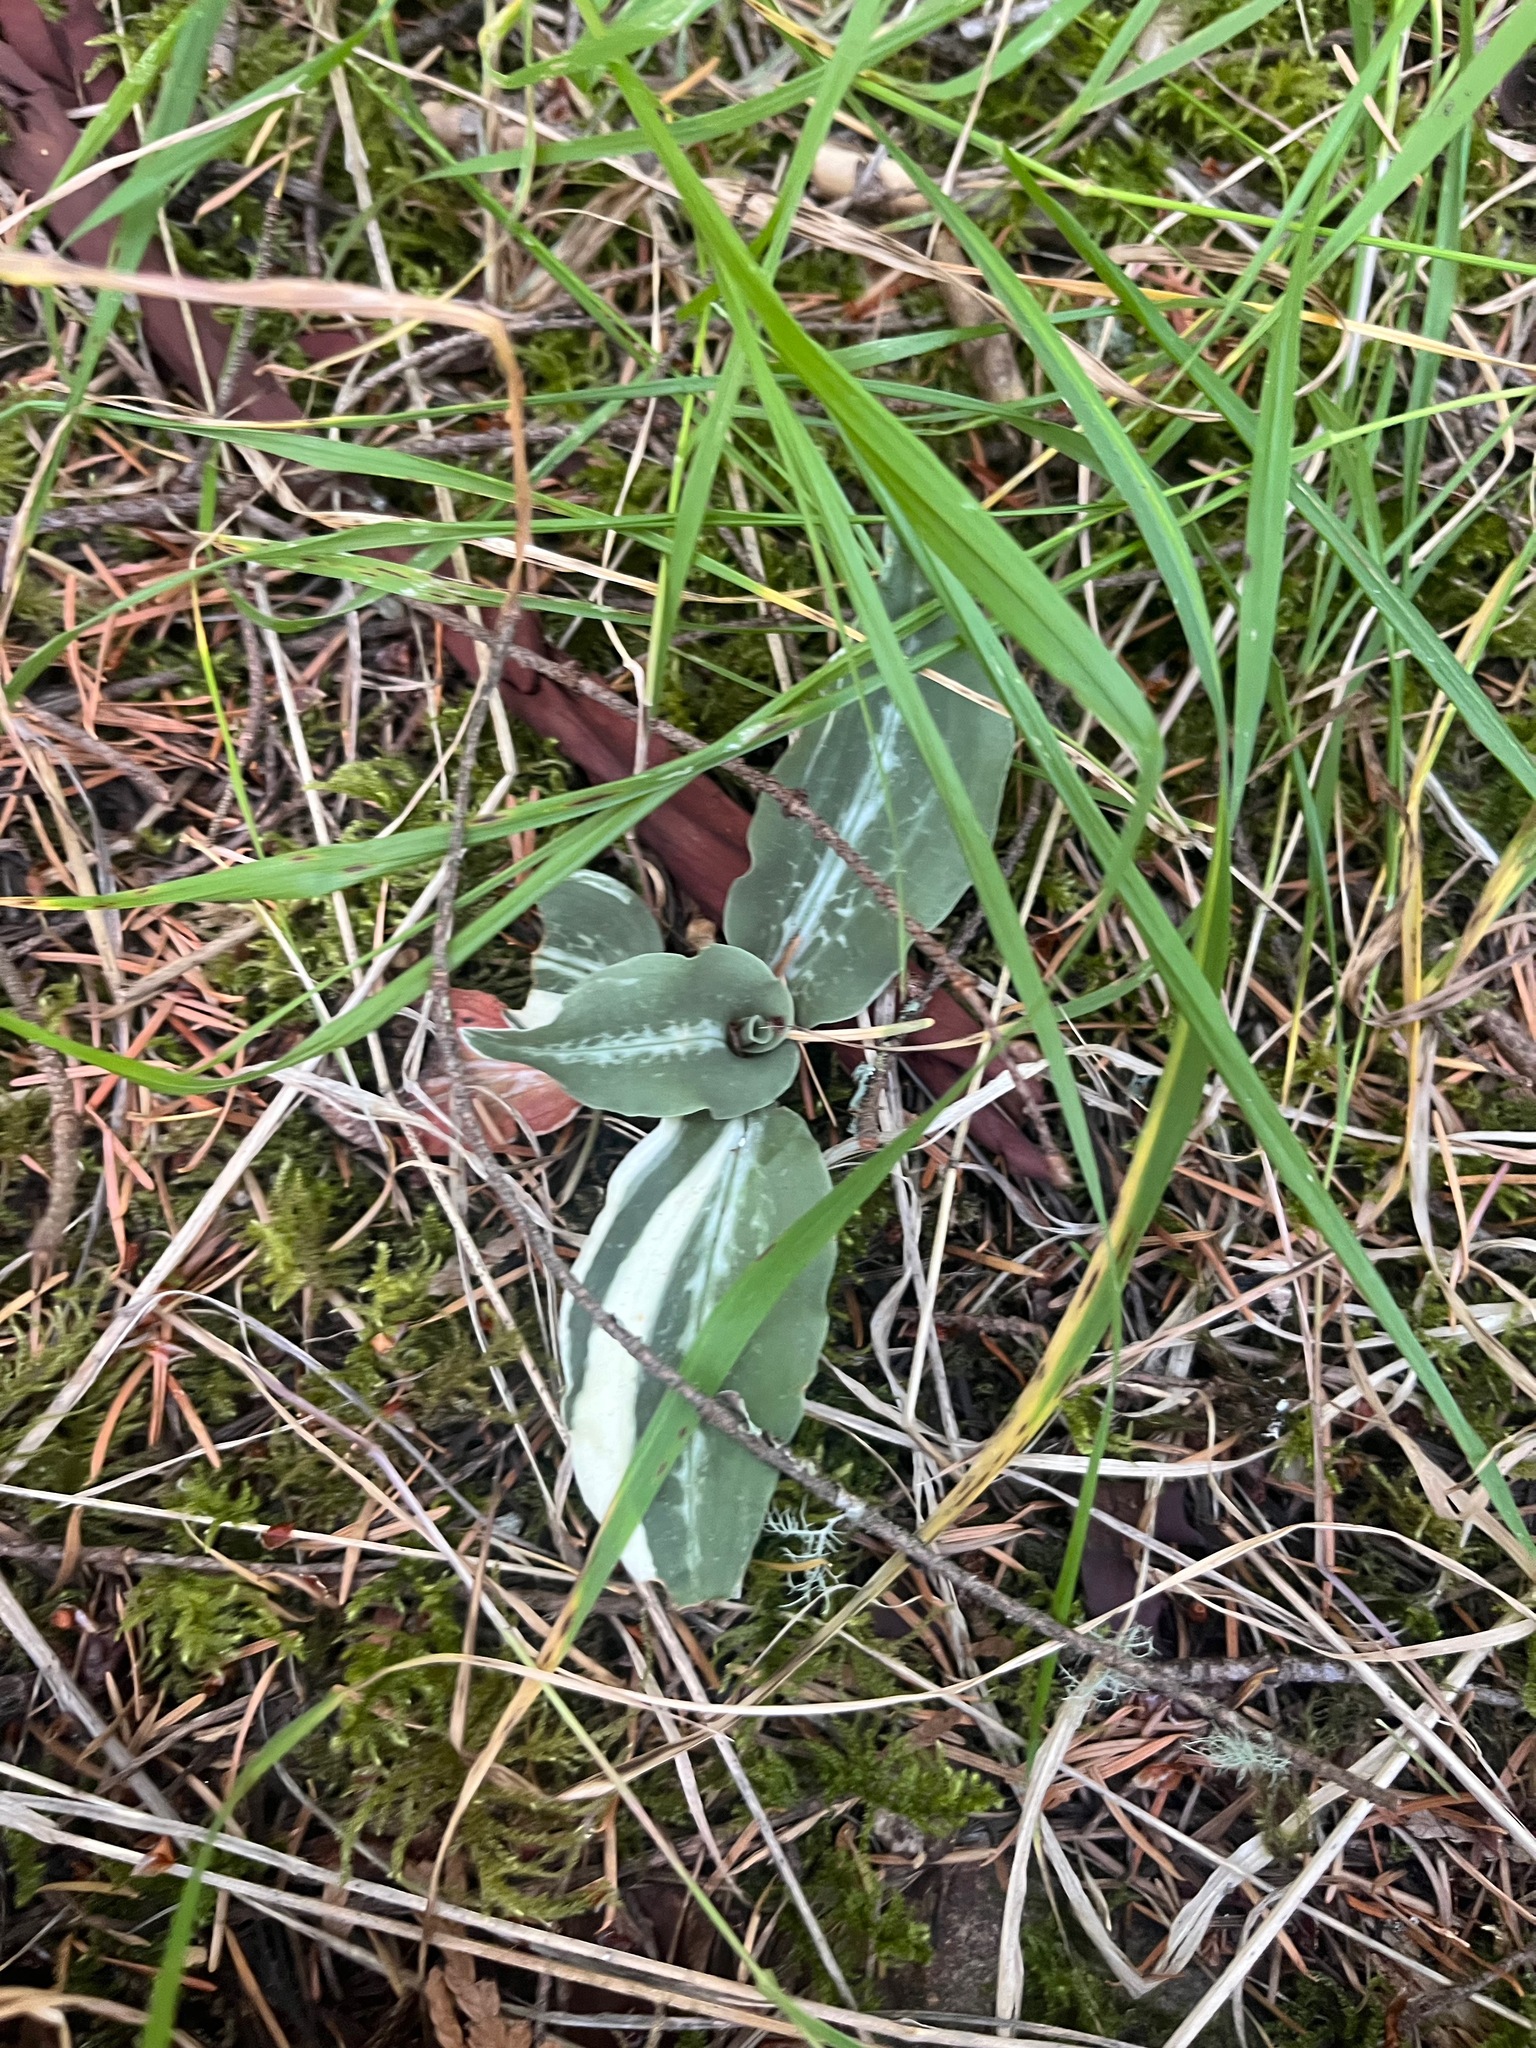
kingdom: Plantae
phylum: Tracheophyta
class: Liliopsida
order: Asparagales
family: Orchidaceae
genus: Goodyera
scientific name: Goodyera oblongifolia
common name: Giant rattlesnake-plantain
